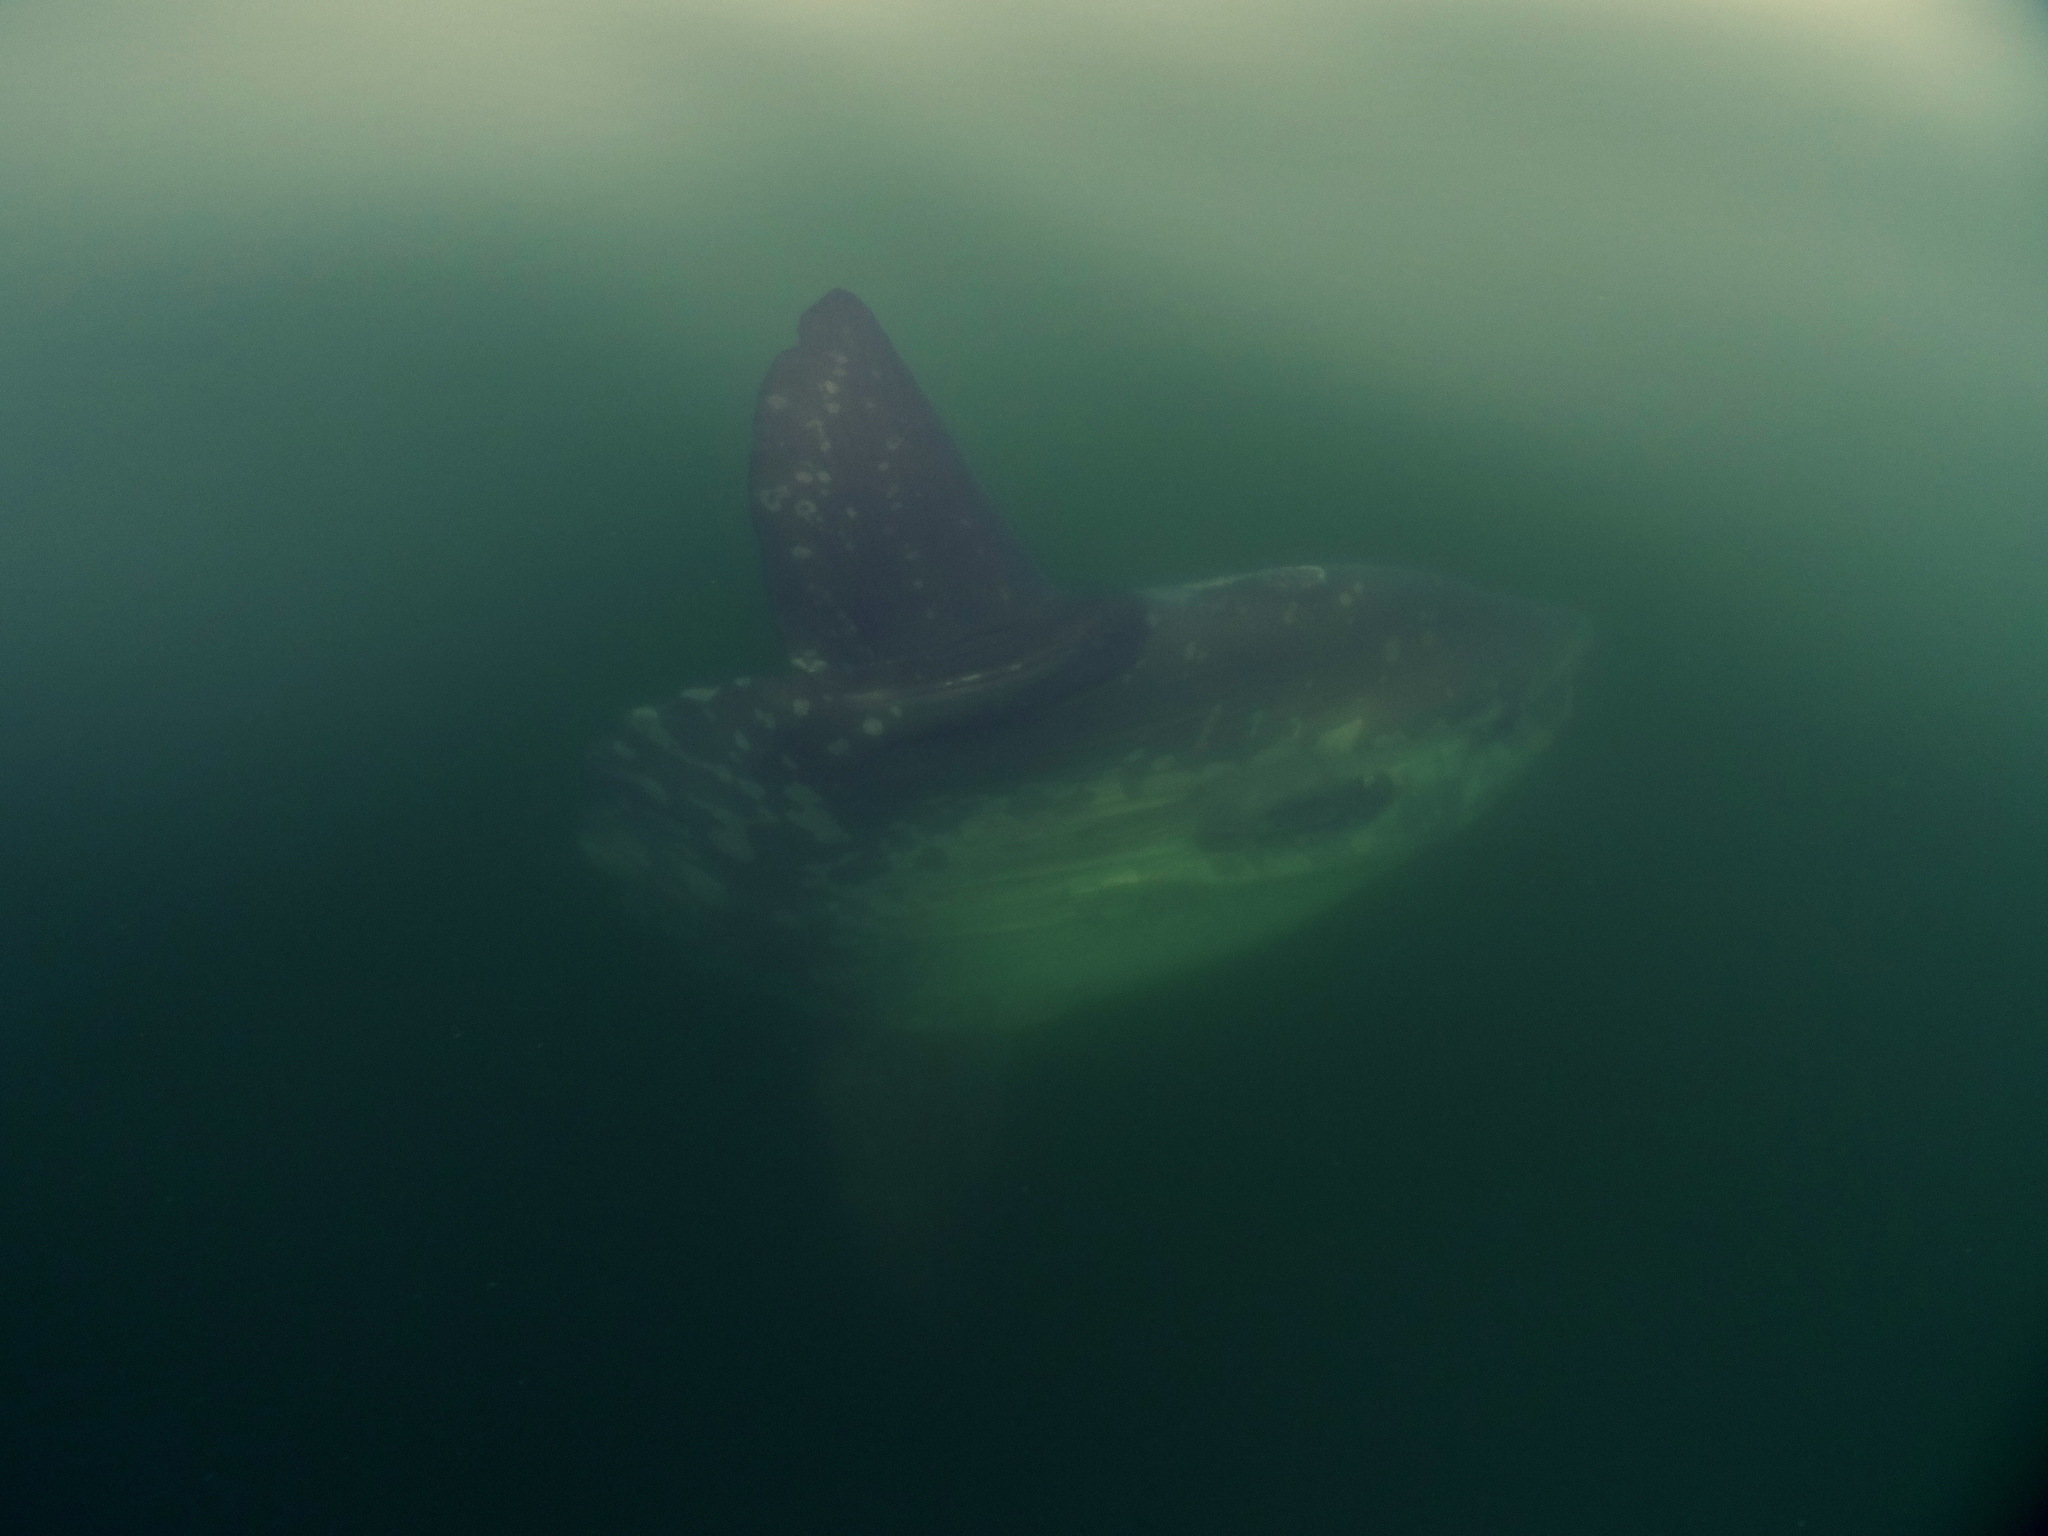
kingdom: Animalia
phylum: Chordata
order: Tetraodontiformes
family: Molidae
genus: Mola
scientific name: Mola mola
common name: Ocean sunfish
